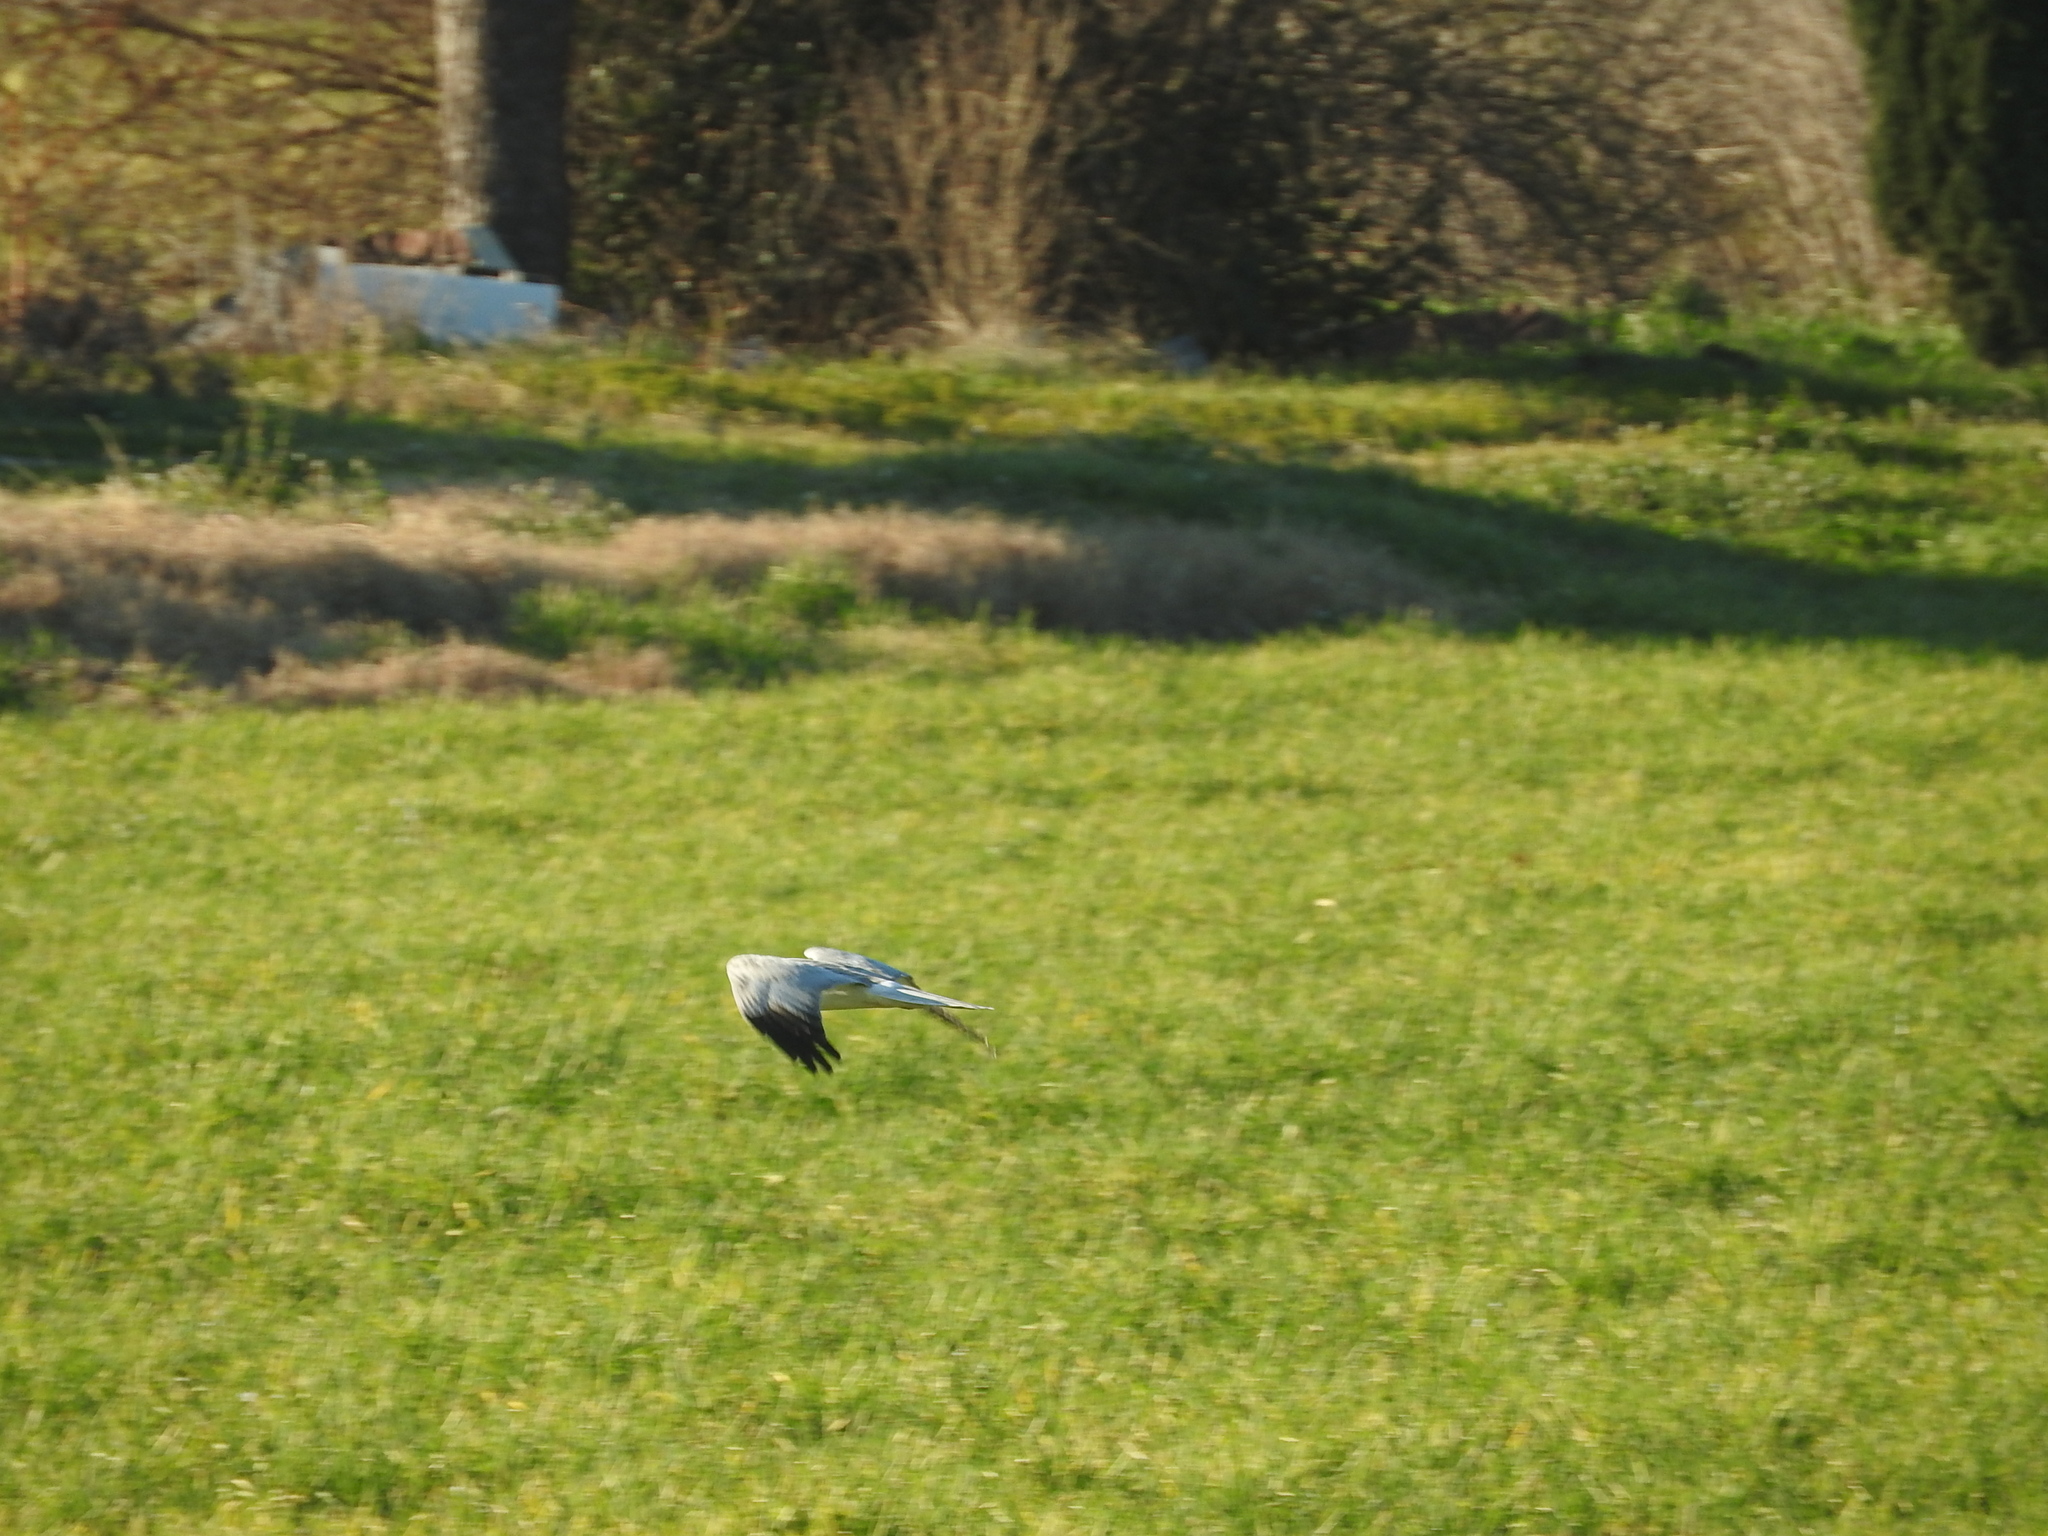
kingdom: Animalia
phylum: Chordata
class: Aves
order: Accipitriformes
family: Accipitridae
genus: Circus
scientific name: Circus cyaneus
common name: Hen harrier
